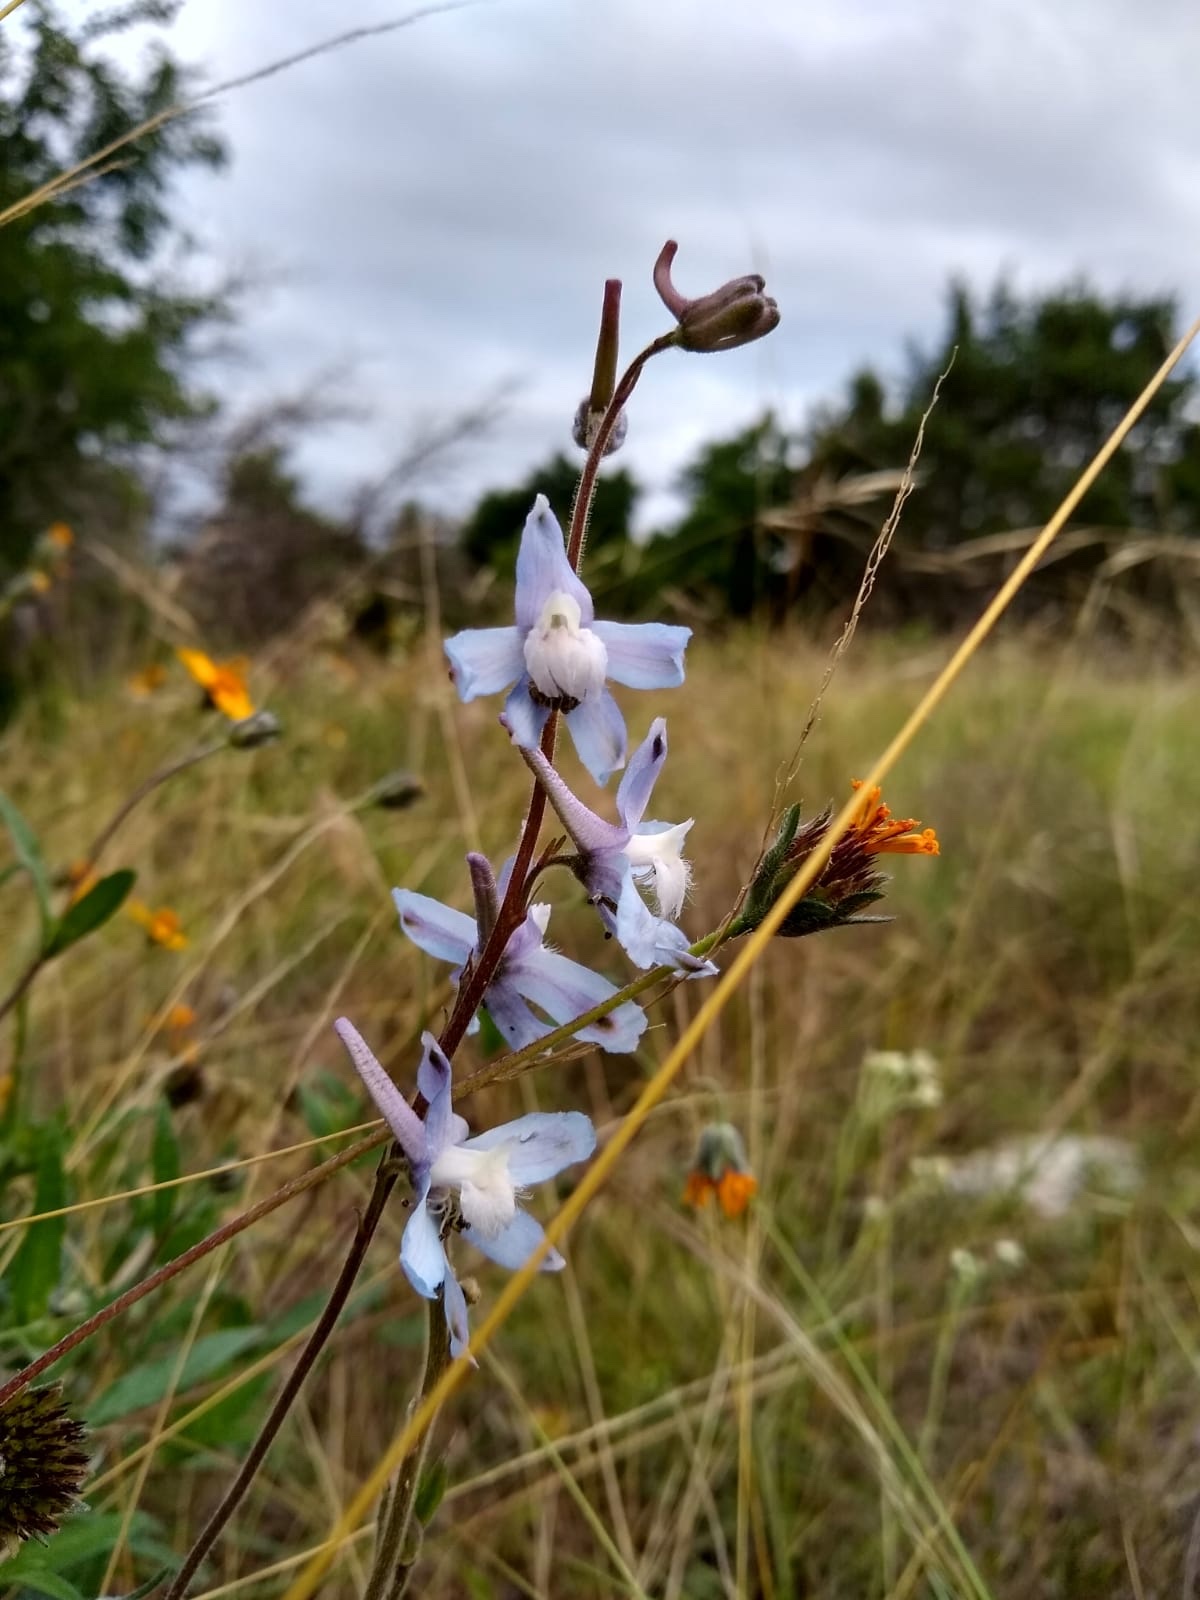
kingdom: Plantae
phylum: Tracheophyta
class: Magnoliopsida
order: Ranunculales
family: Ranunculaceae
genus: Delphinium
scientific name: Delphinium carolinianum
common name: Carolina larkspur
